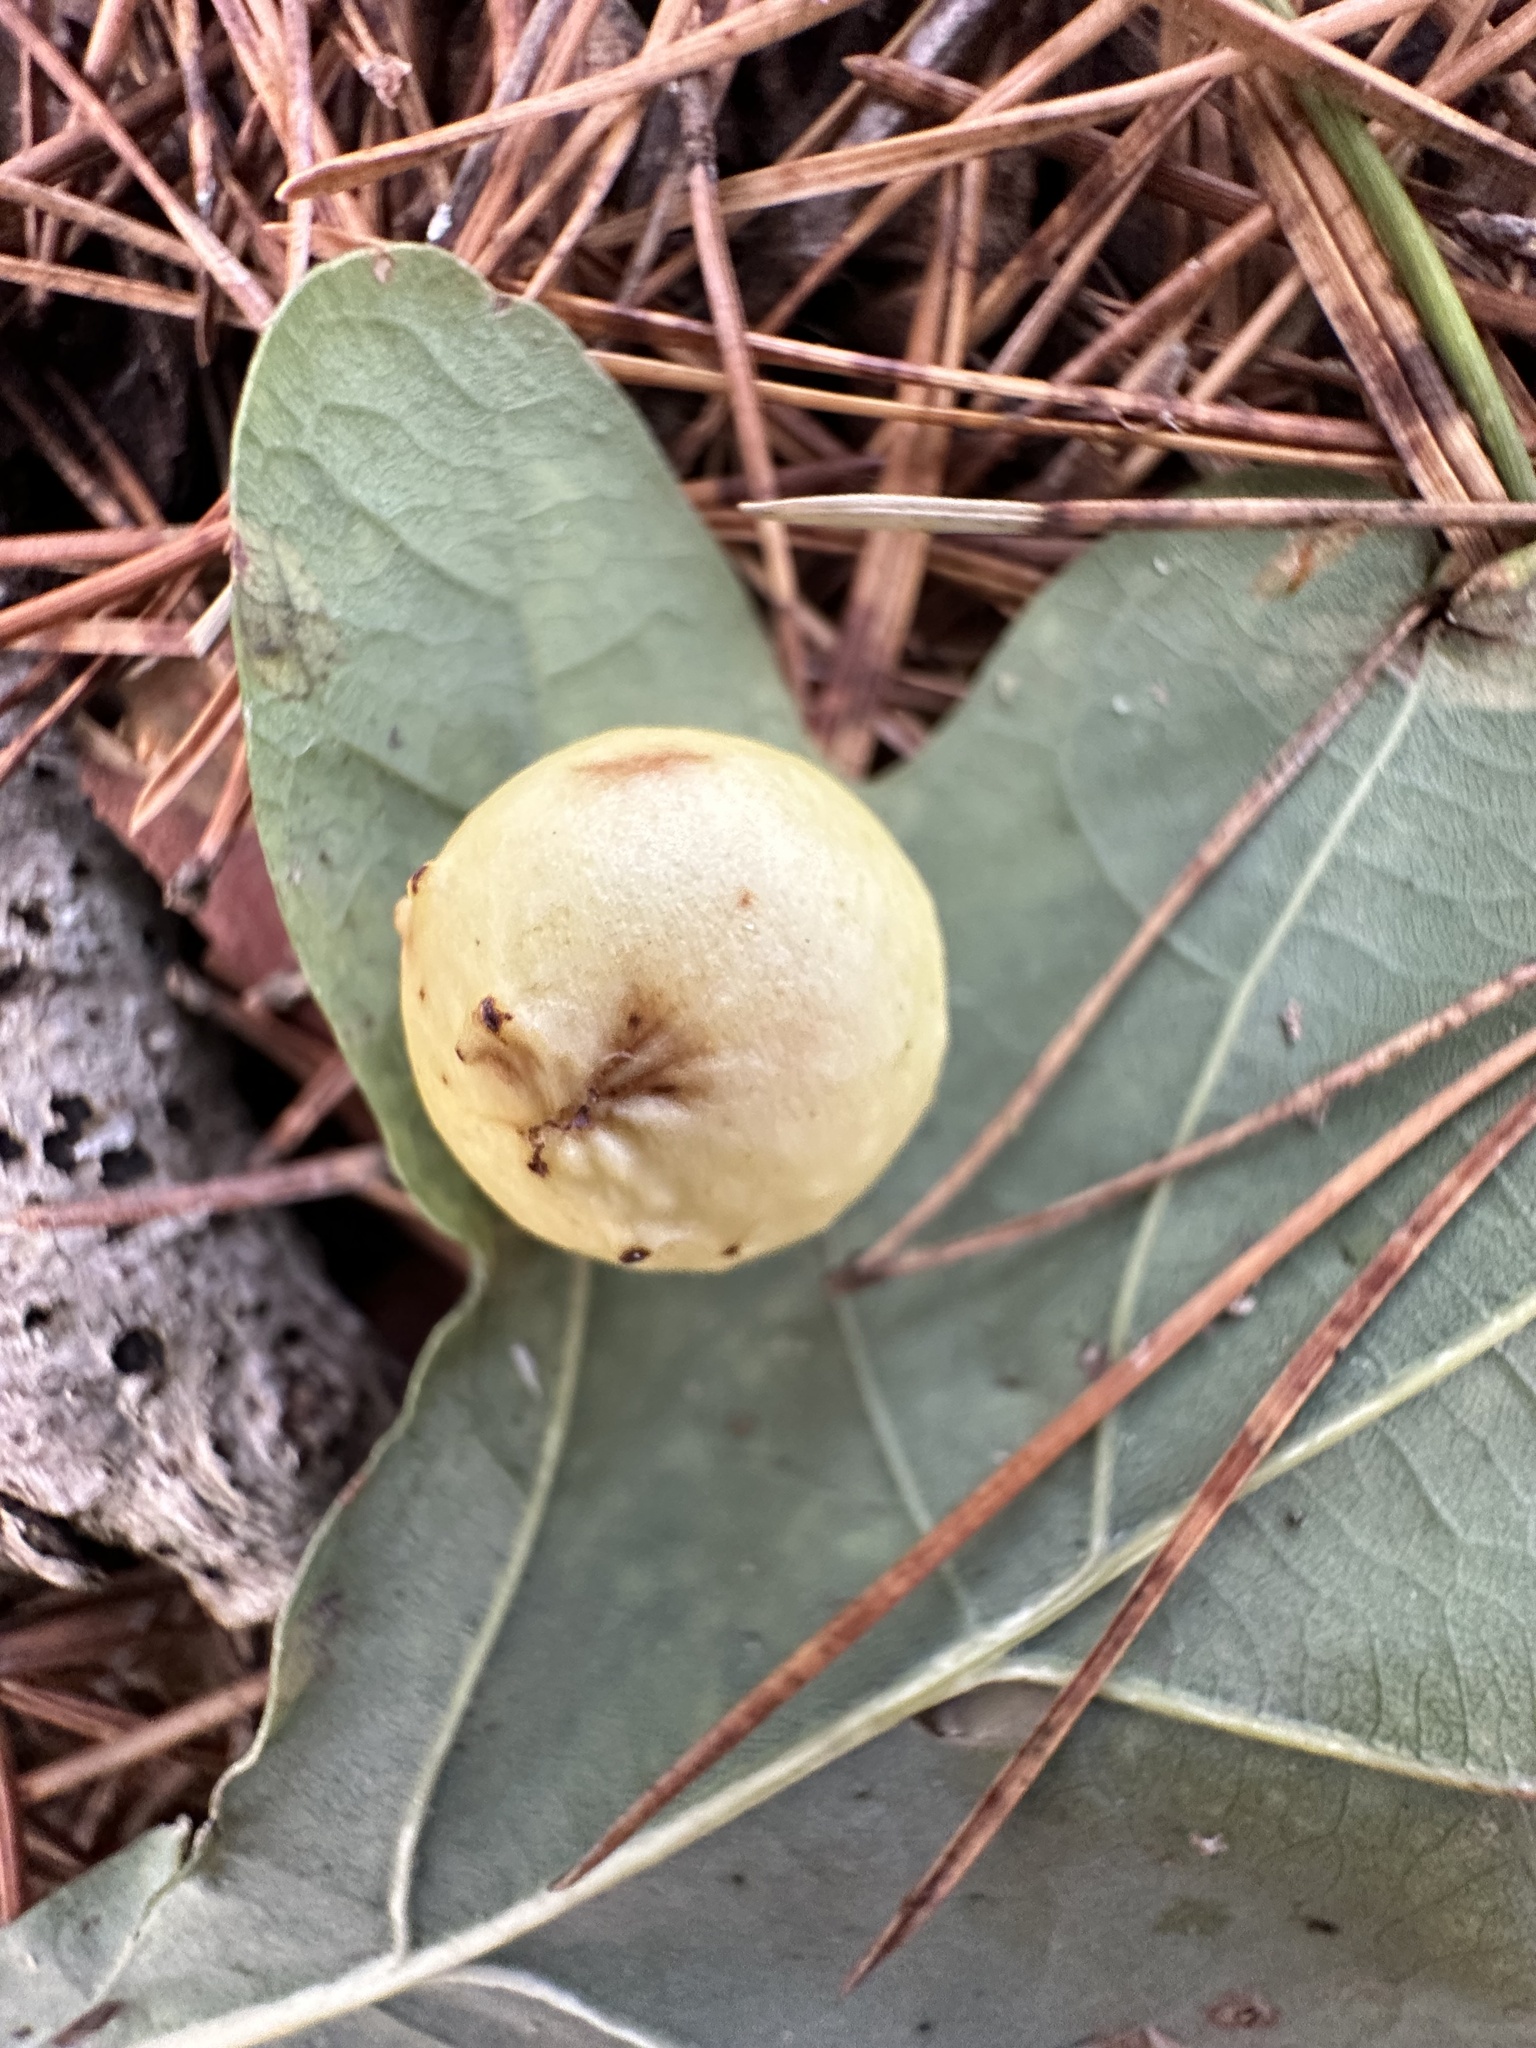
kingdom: Animalia
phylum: Arthropoda
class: Insecta
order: Hymenoptera
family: Cynipidae
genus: Cynips
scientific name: Cynips quercusfolii
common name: Cherry gall
